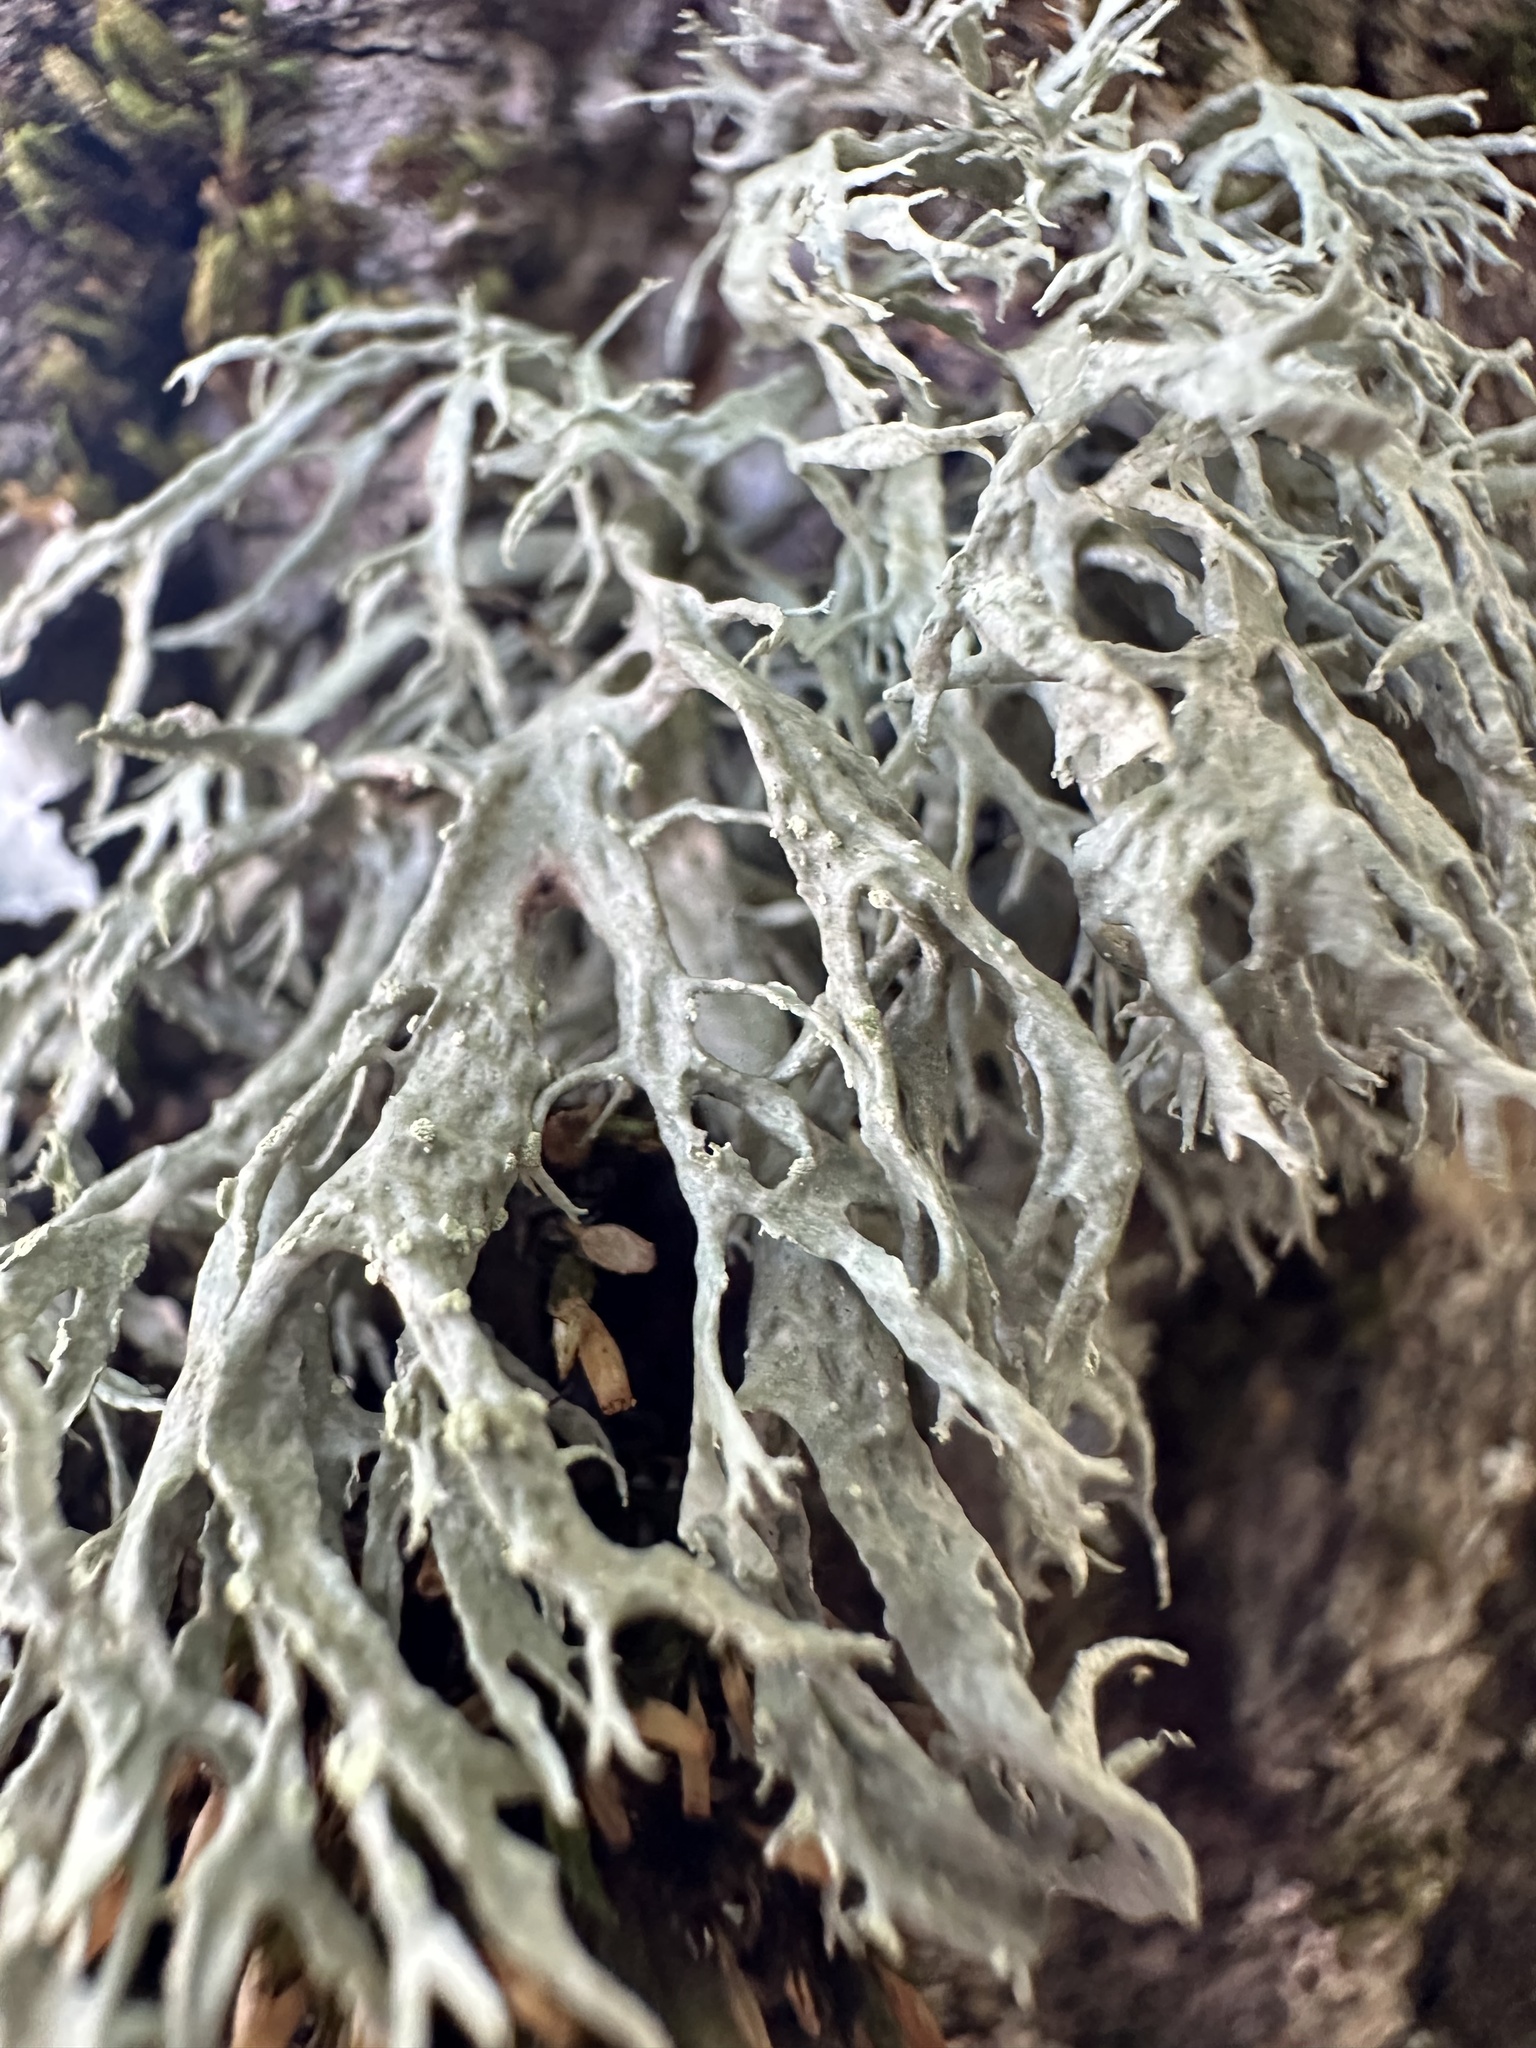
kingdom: Fungi
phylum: Ascomycota
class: Lecanoromycetes
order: Lecanorales
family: Ramalinaceae
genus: Ramalina
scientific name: Ramalina farinacea
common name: Farinose cartilage lichen
